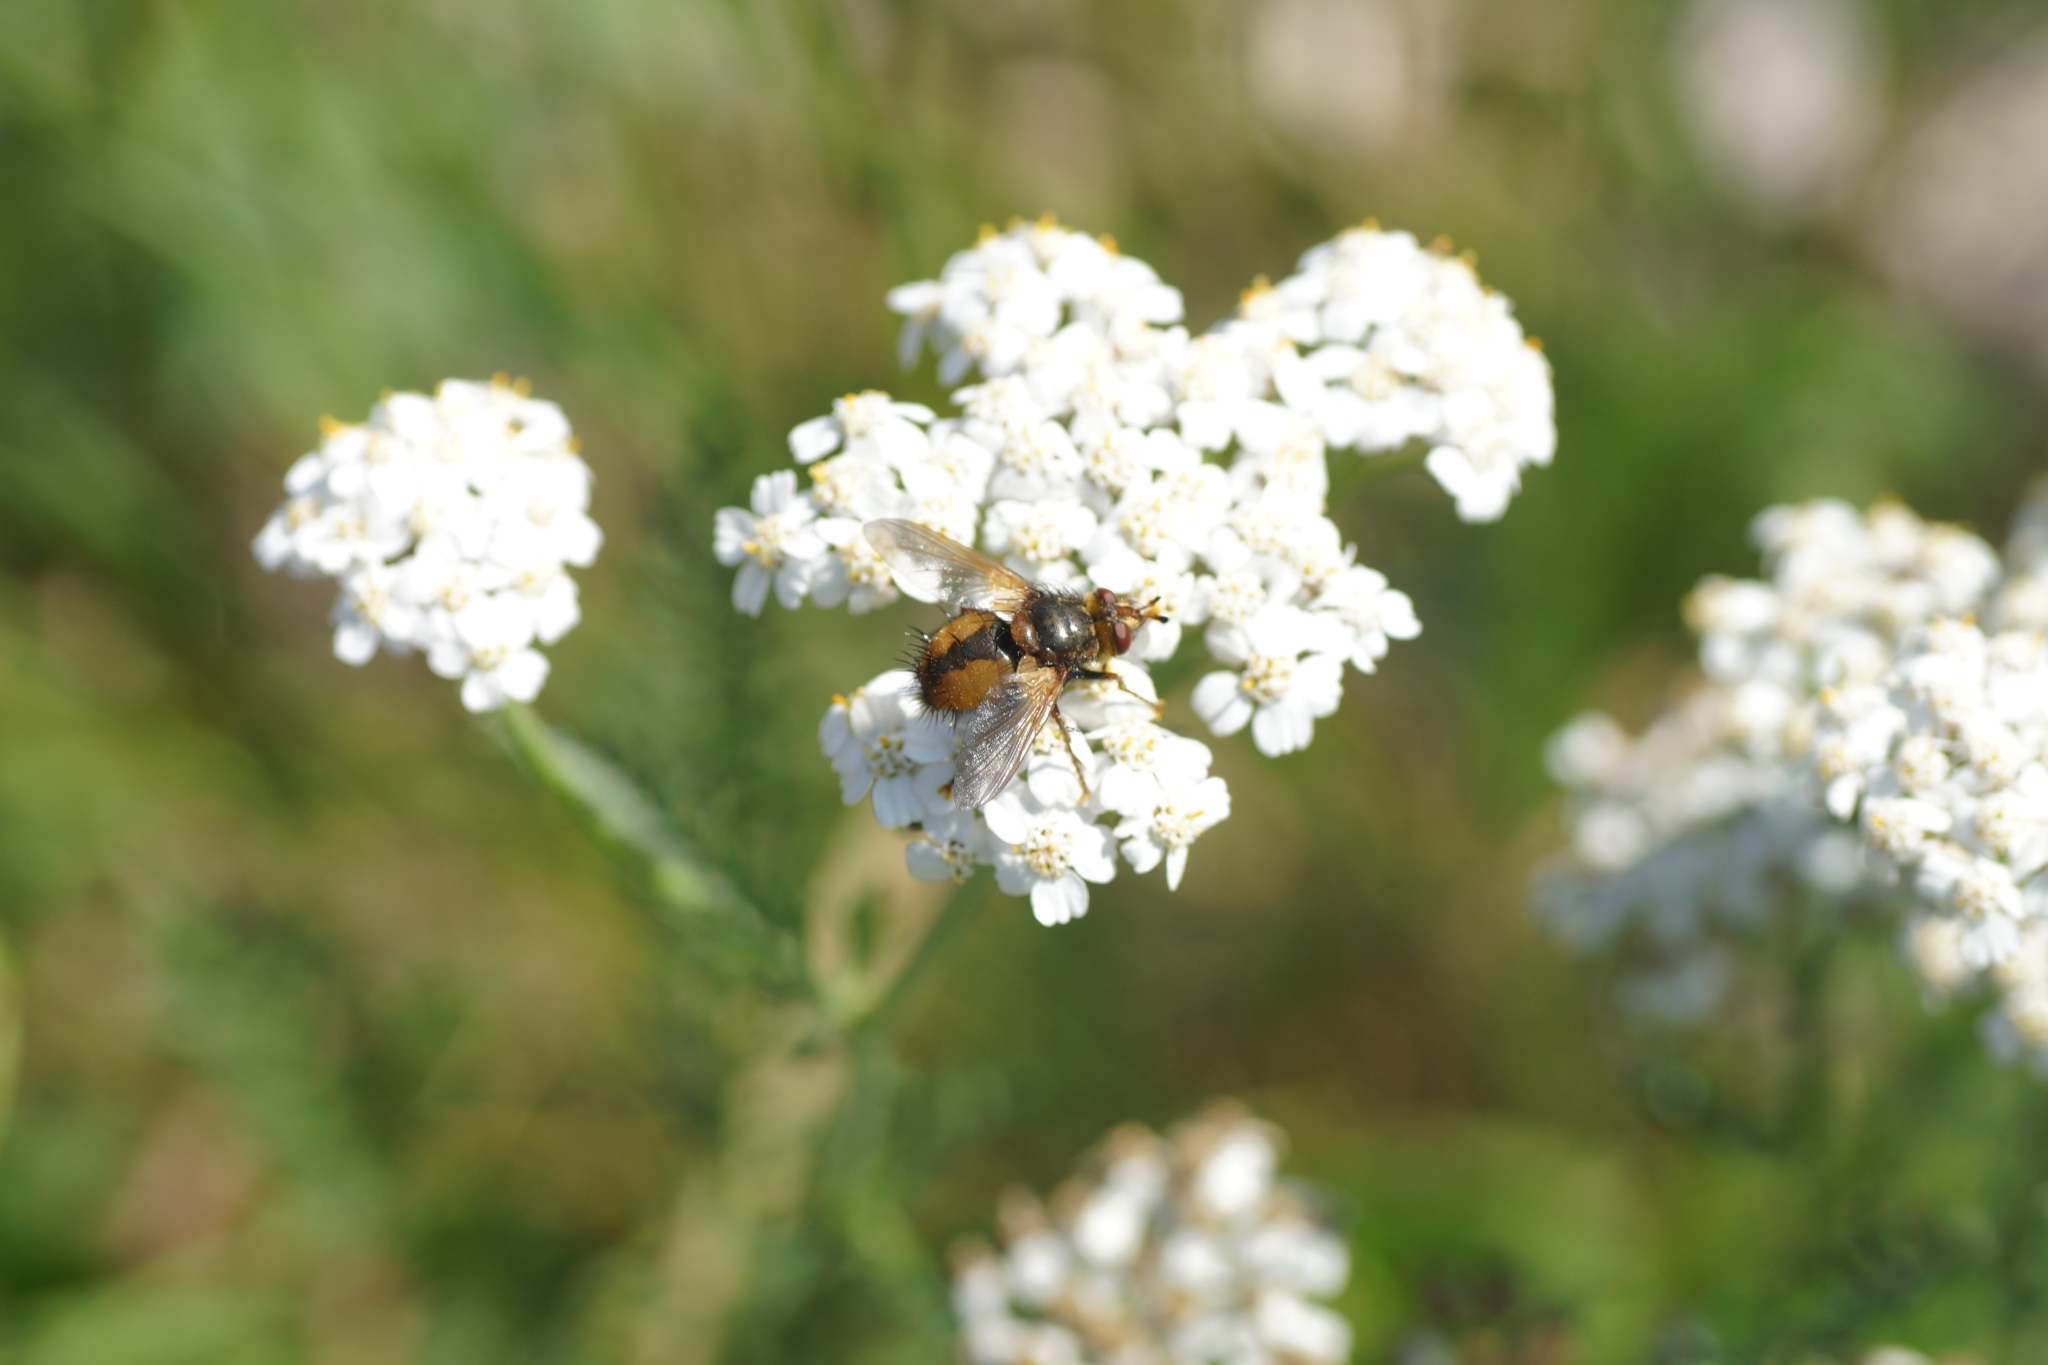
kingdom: Animalia
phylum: Arthropoda
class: Insecta
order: Diptera
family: Tachinidae
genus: Tachina
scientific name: Tachina fera
